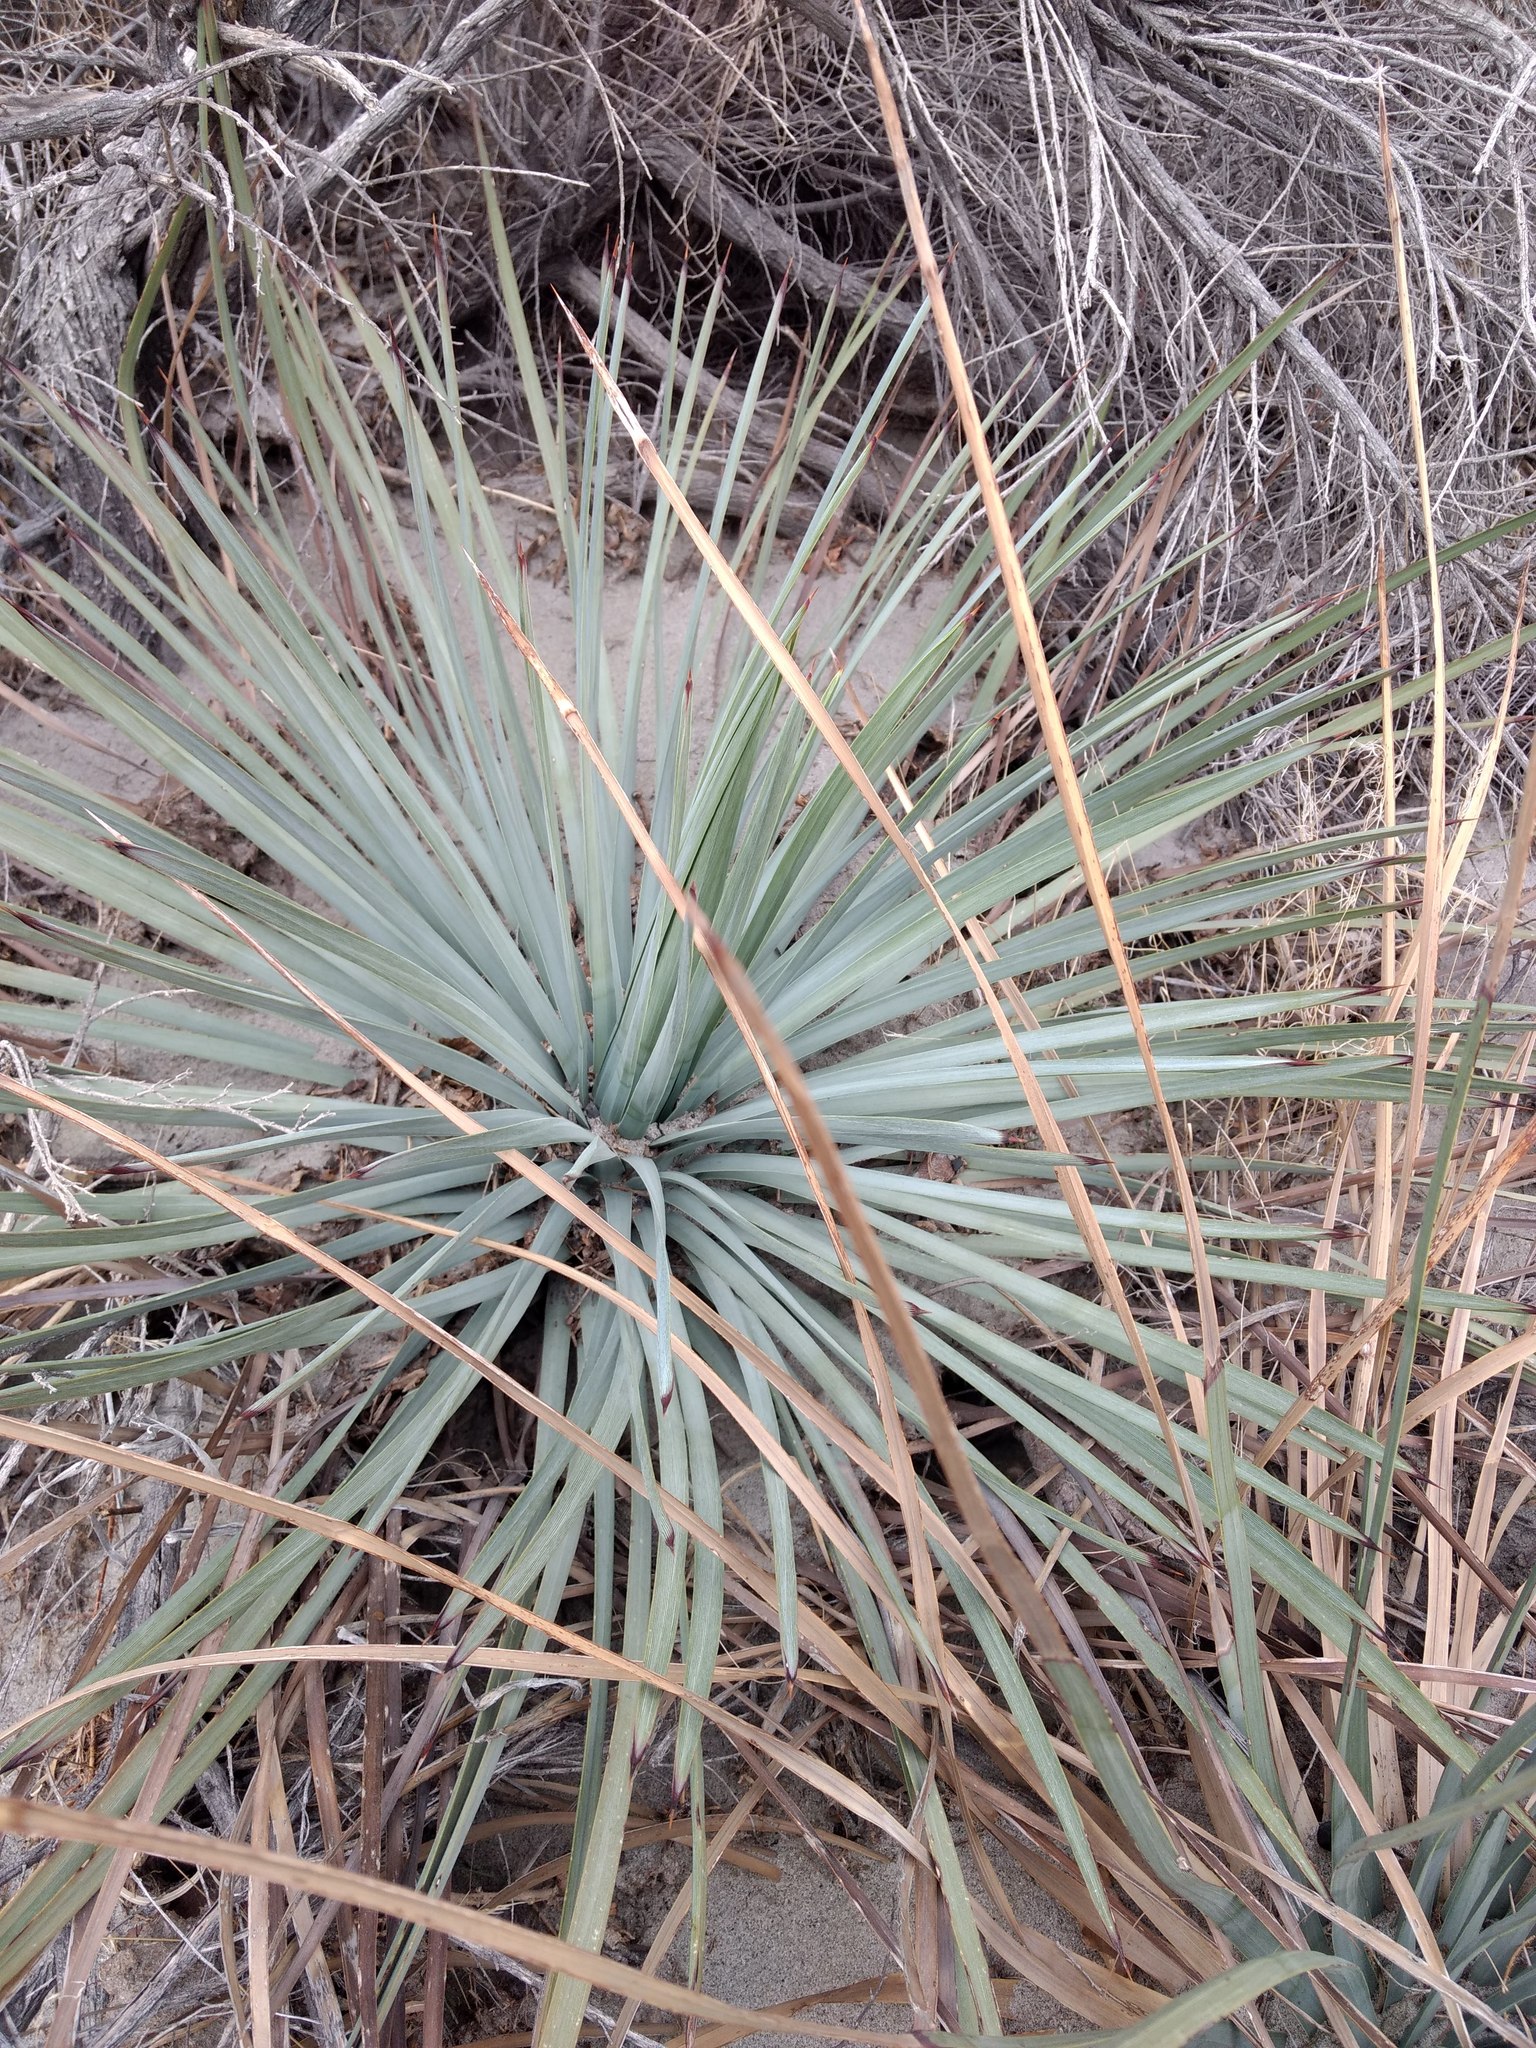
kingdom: Plantae
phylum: Tracheophyta
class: Liliopsida
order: Asparagales
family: Asparagaceae
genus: Hesperoyucca
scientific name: Hesperoyucca whipplei
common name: Our lord's-candle
